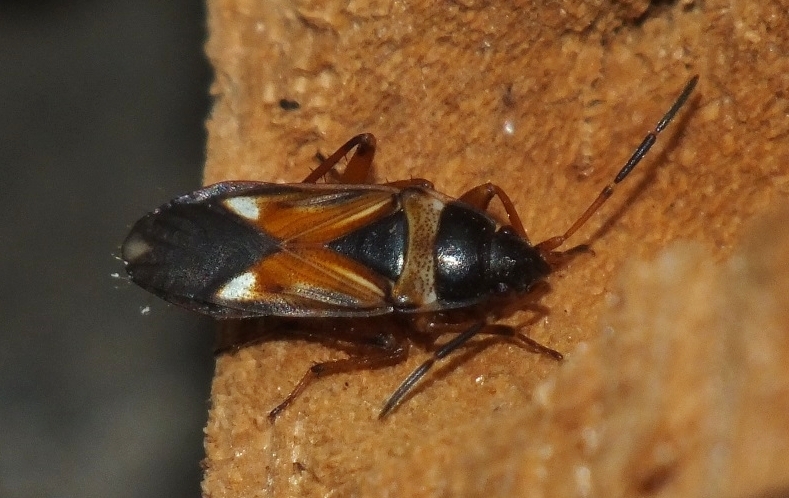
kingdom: Animalia
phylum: Arthropoda
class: Insecta
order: Hemiptera
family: Rhyparochromidae
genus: Raglius
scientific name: Raglius alboacuminatus
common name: Dirt-colored seed bug
